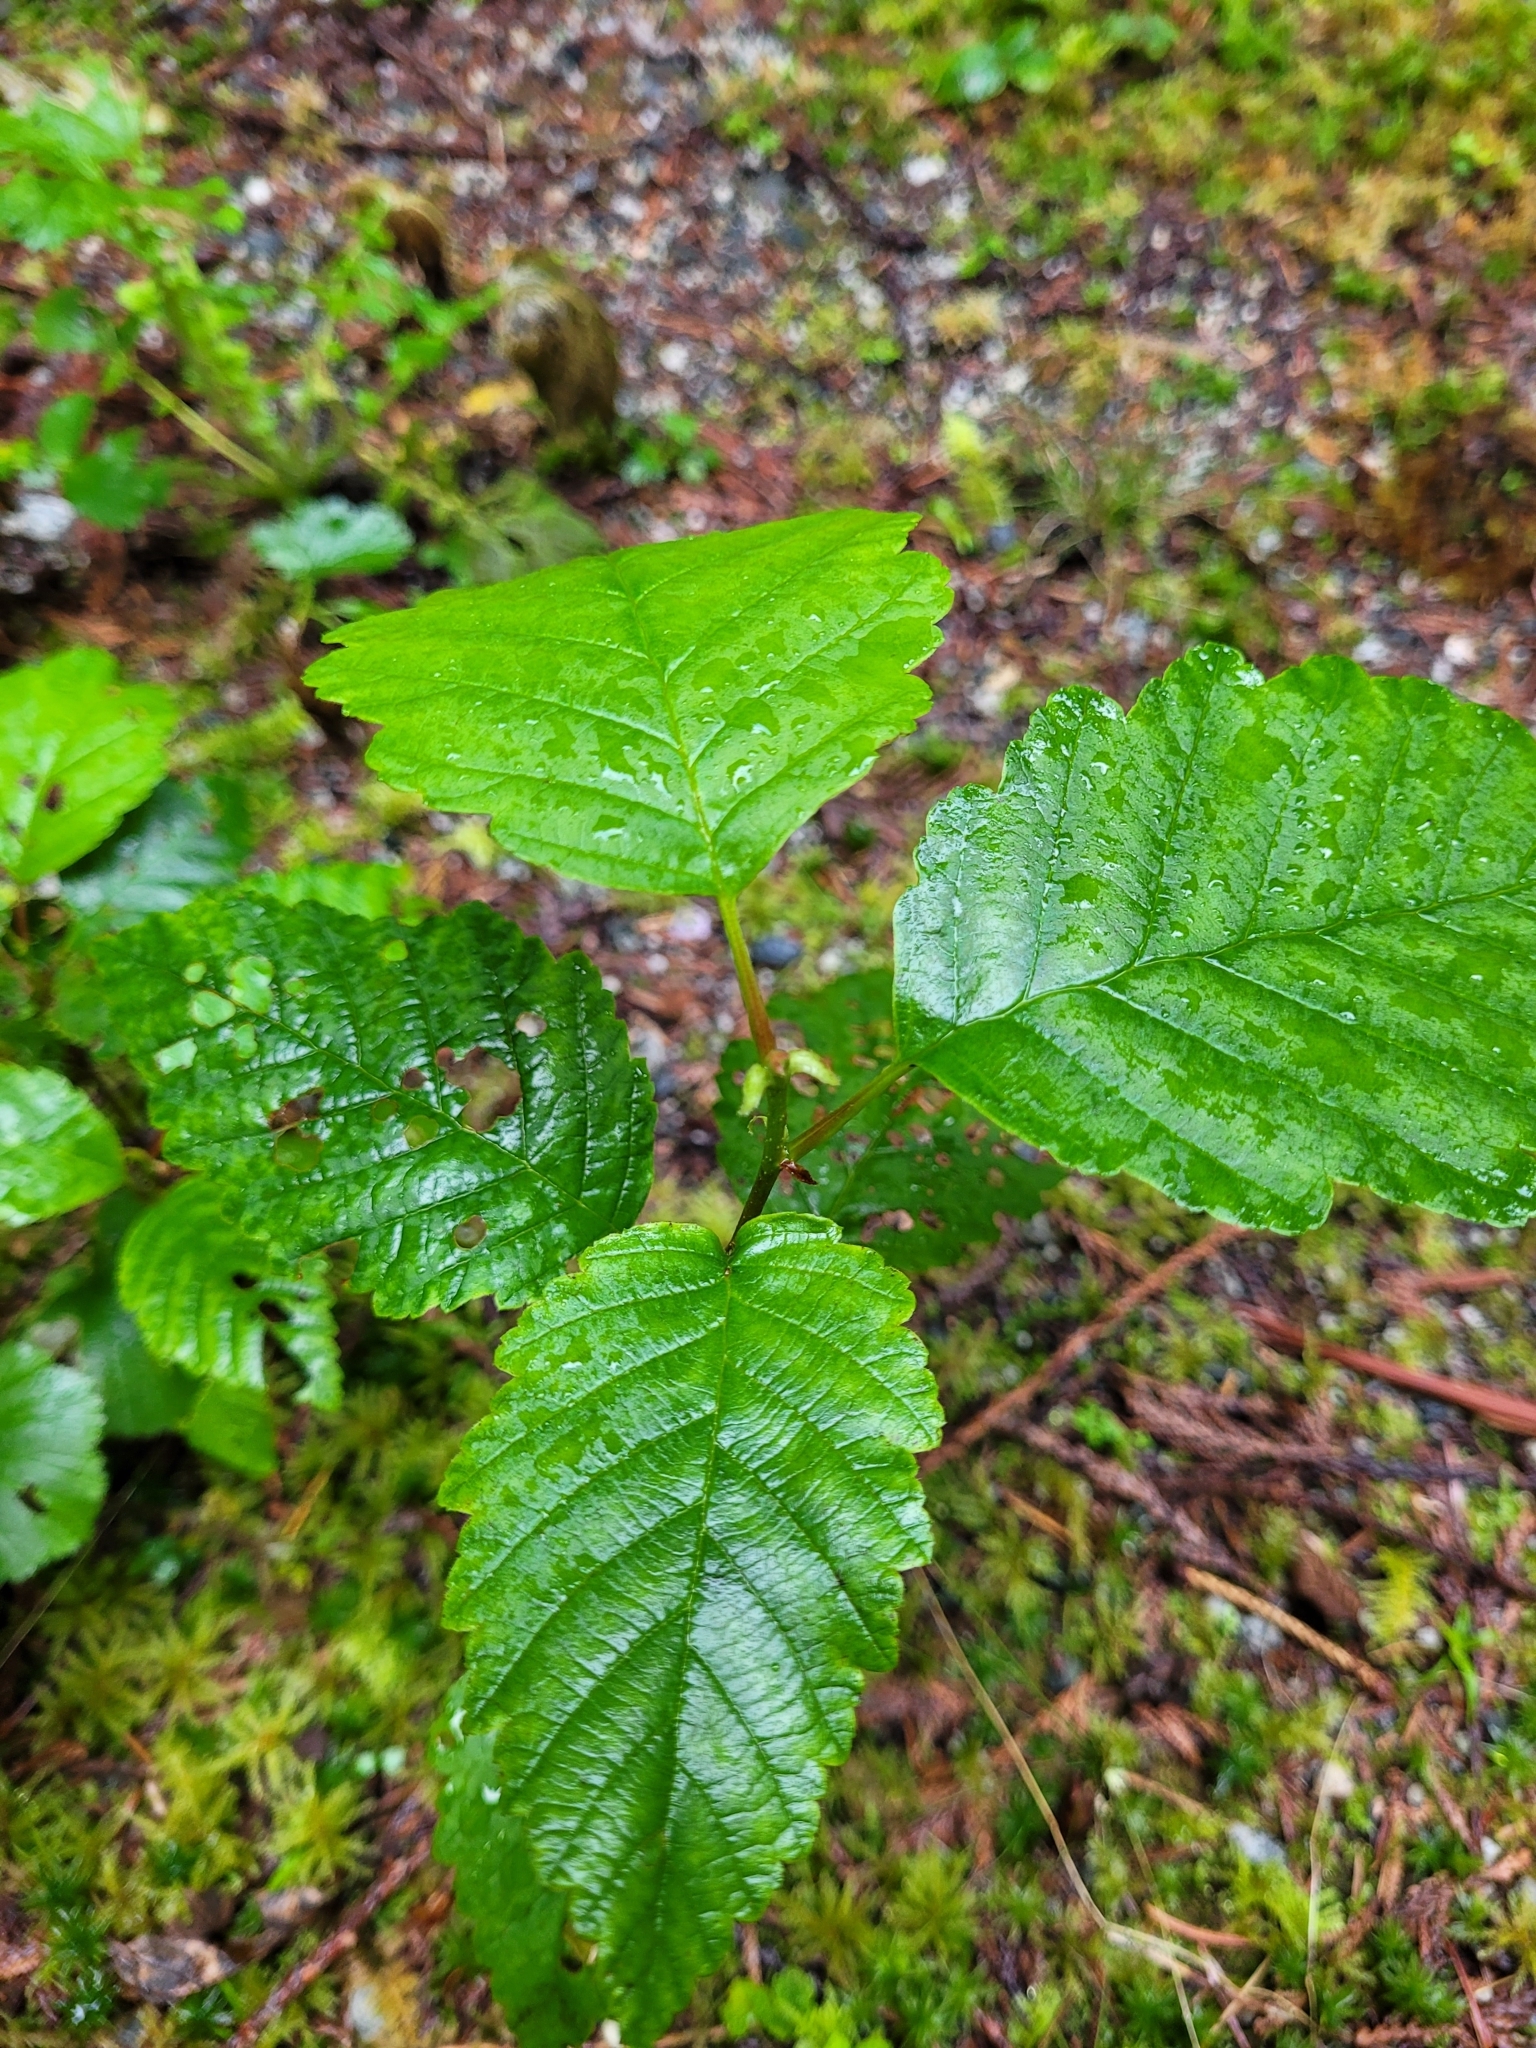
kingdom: Plantae
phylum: Tracheophyta
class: Magnoliopsida
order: Fagales
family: Betulaceae
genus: Alnus
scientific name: Alnus rubra
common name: Red alder
